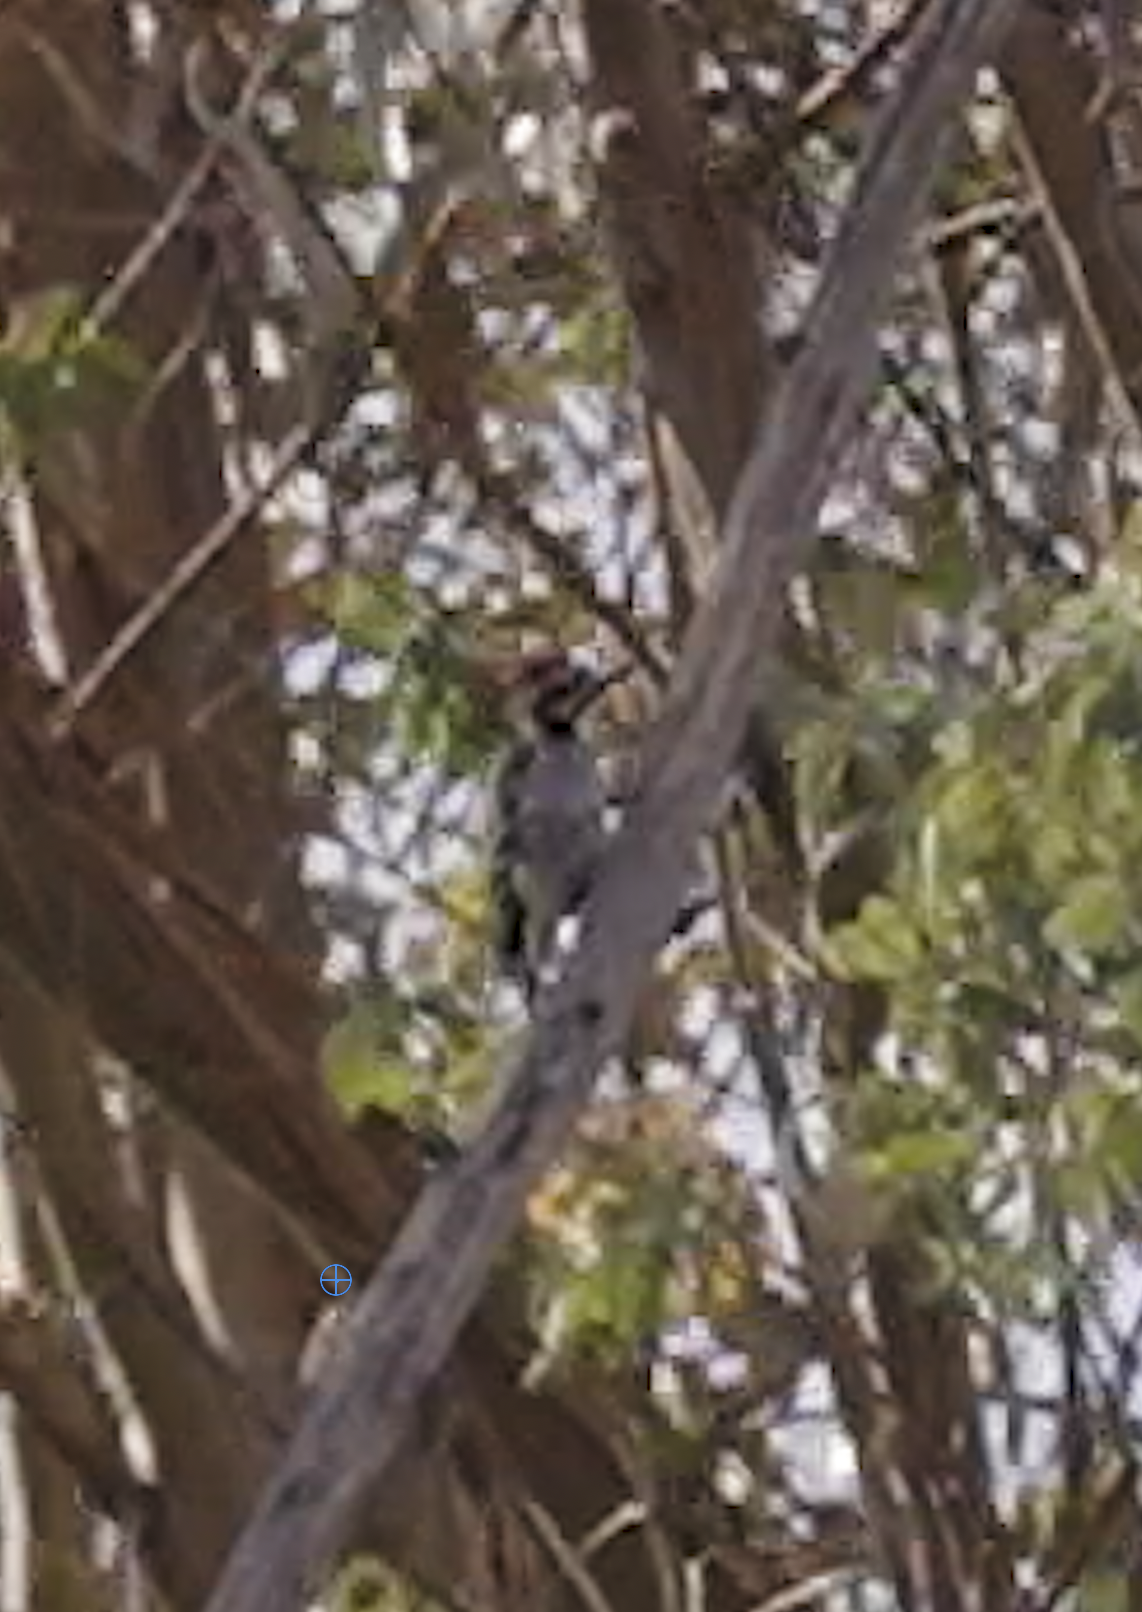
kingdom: Animalia
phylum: Chordata
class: Aves
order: Piciformes
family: Picidae
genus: Dryobates
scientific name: Dryobates nuttallii
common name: Nuttall's woodpecker
